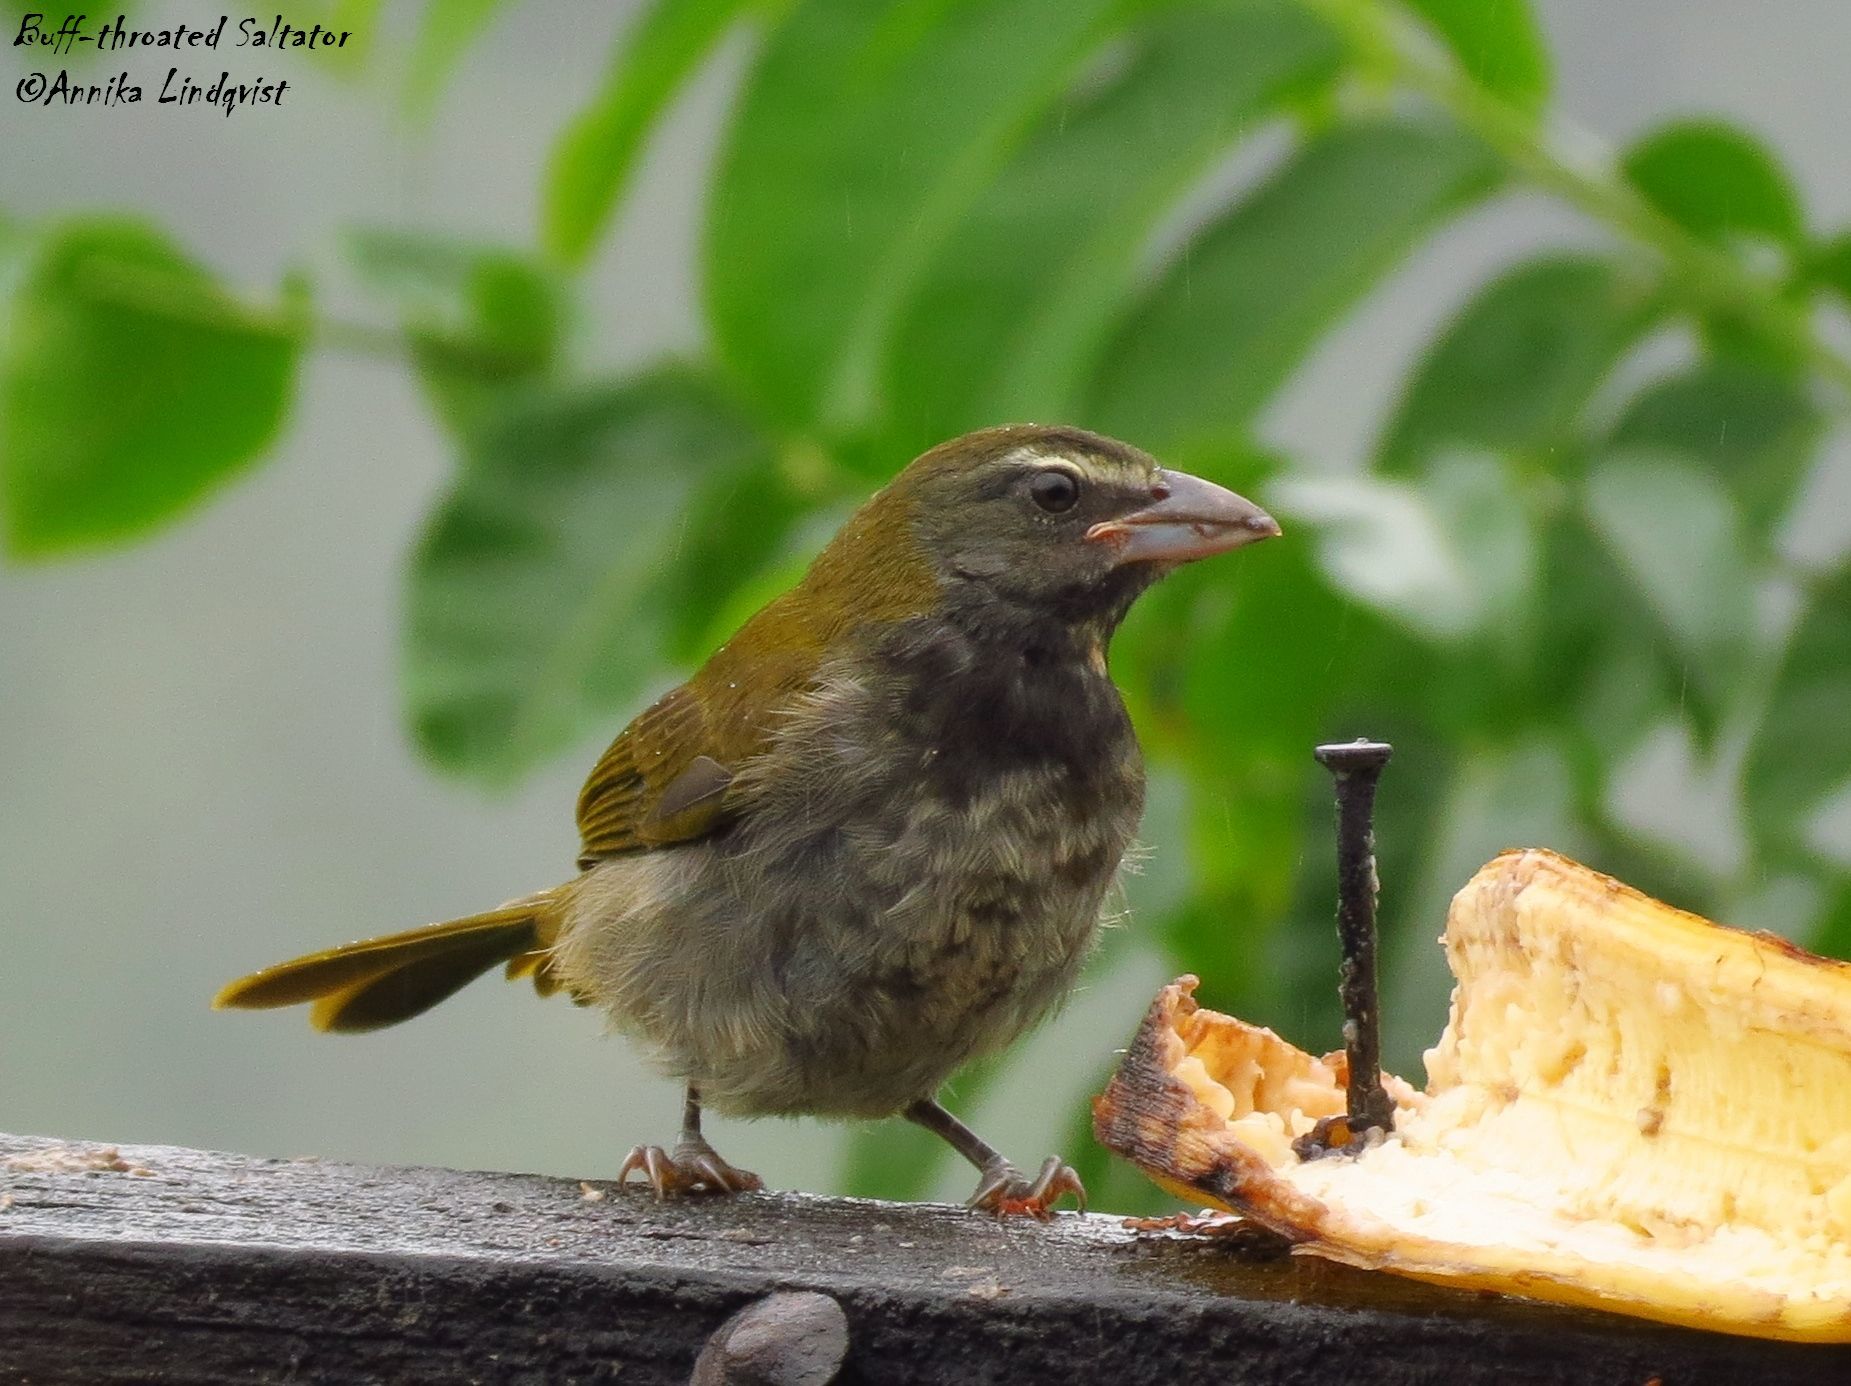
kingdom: Animalia
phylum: Chordata
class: Aves
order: Passeriformes
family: Thraupidae
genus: Saltator
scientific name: Saltator maximus
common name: Buff-throated saltator
